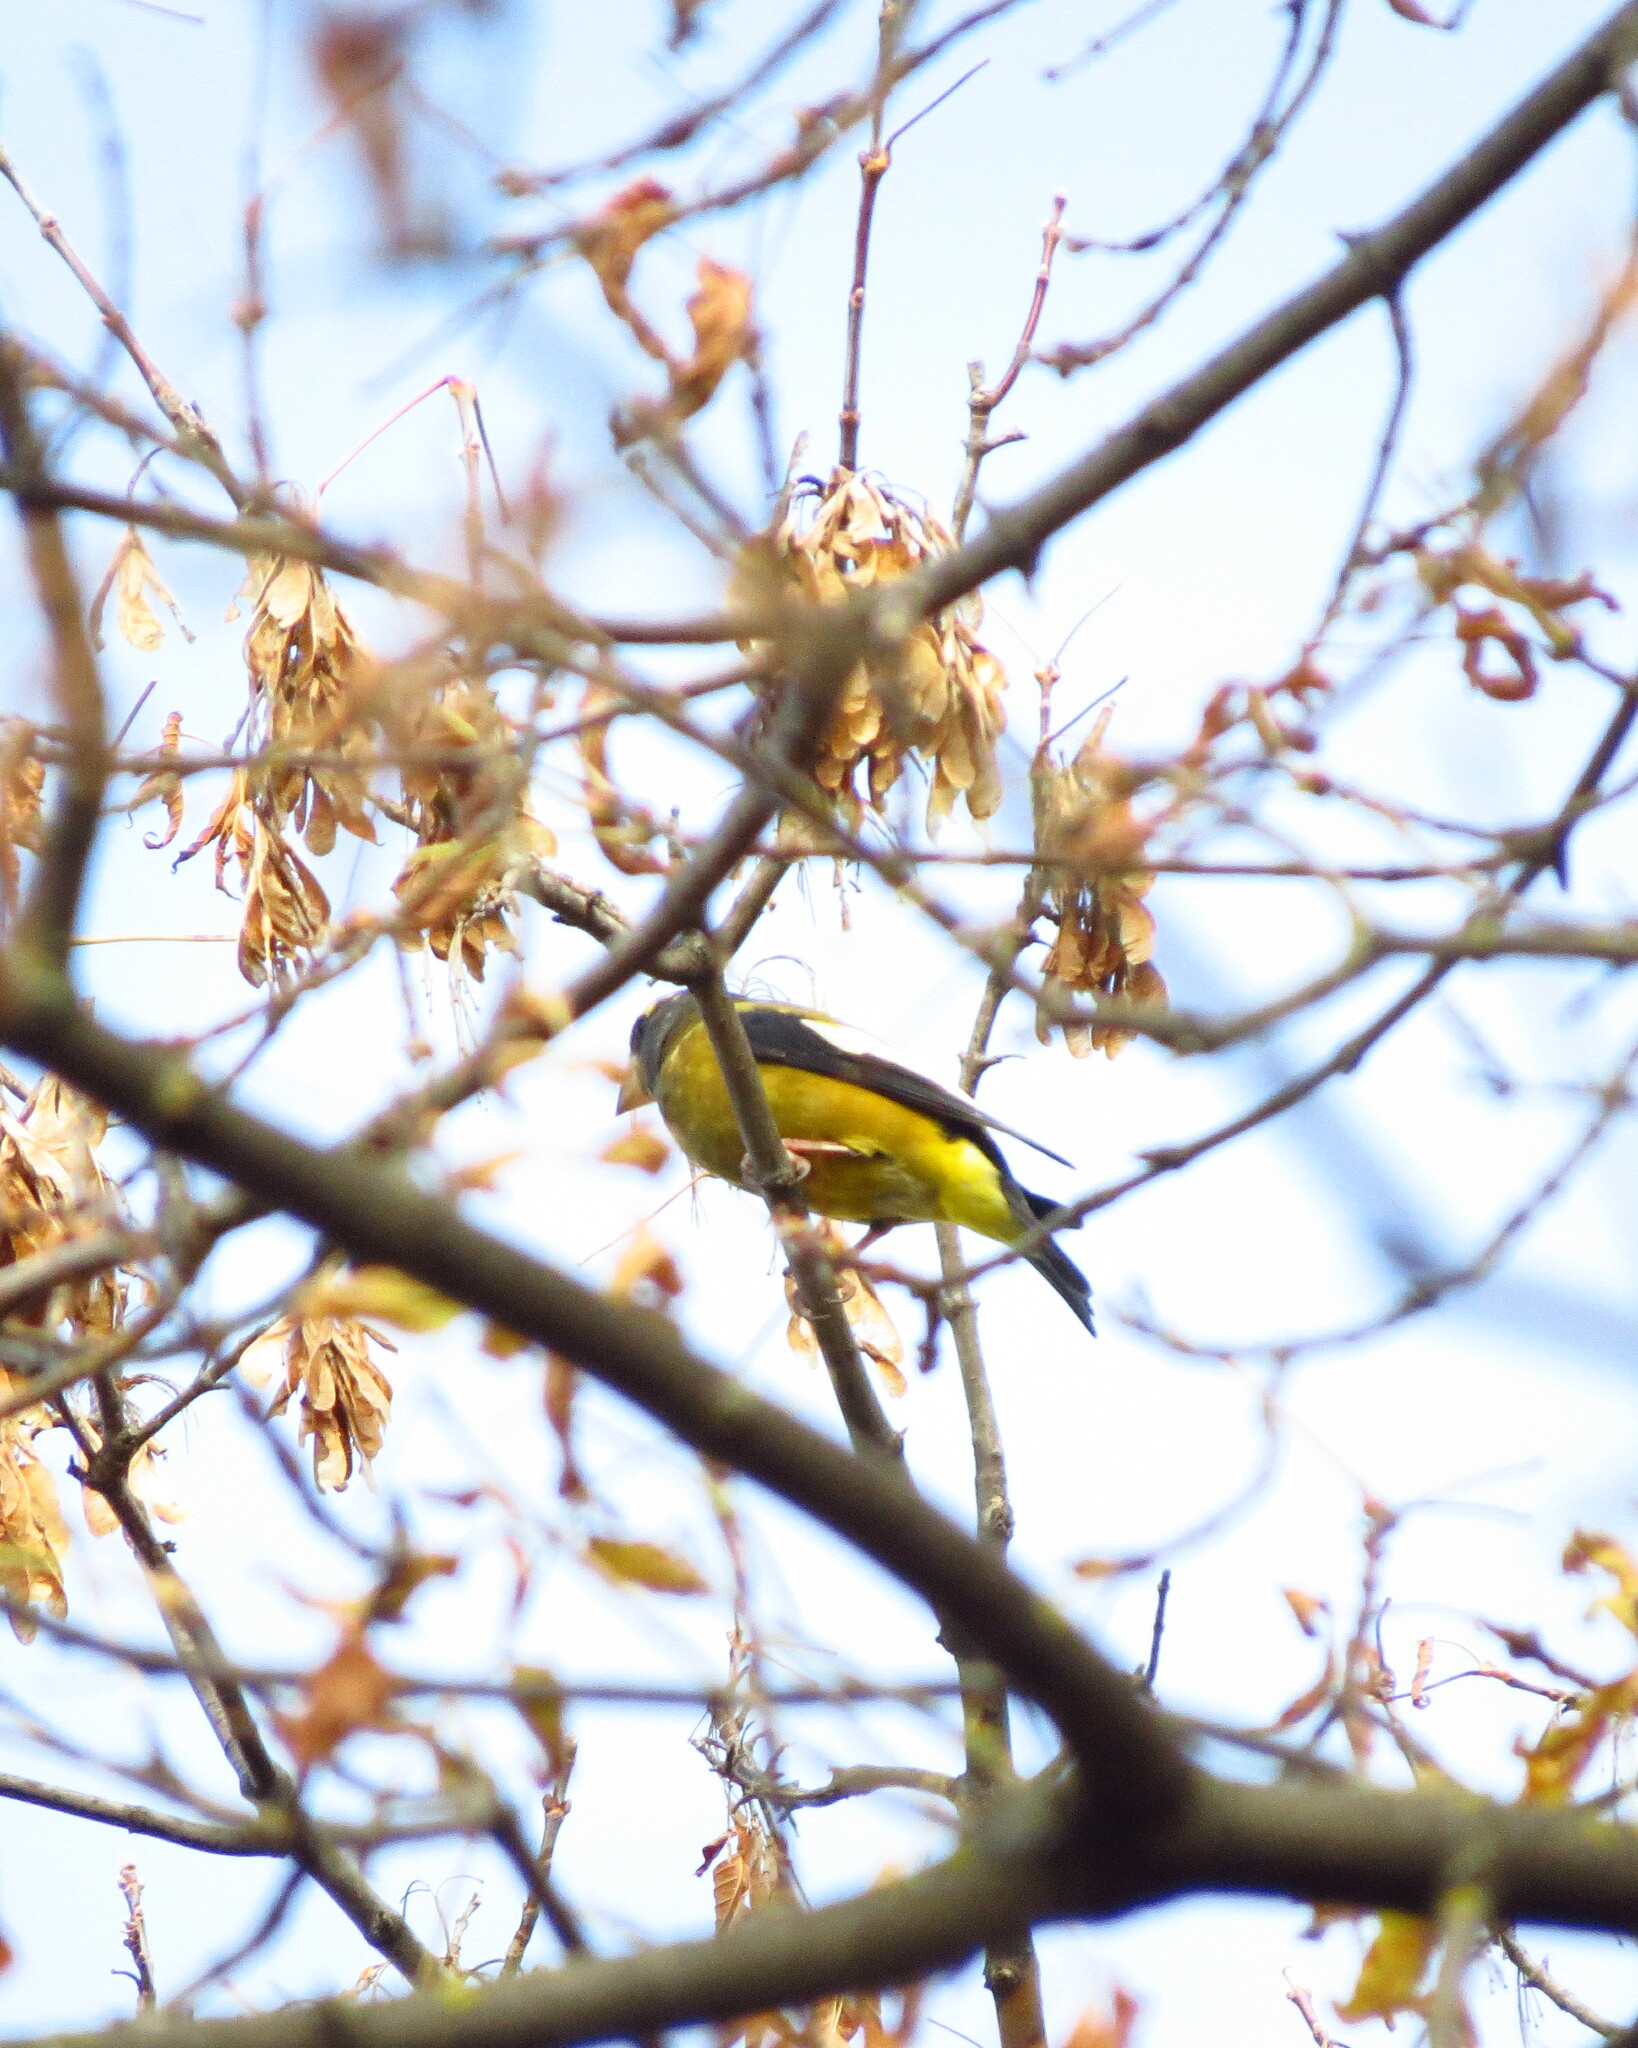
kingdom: Animalia
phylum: Chordata
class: Aves
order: Passeriformes
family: Fringillidae
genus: Hesperiphona
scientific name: Hesperiphona vespertina
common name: Evening grosbeak
